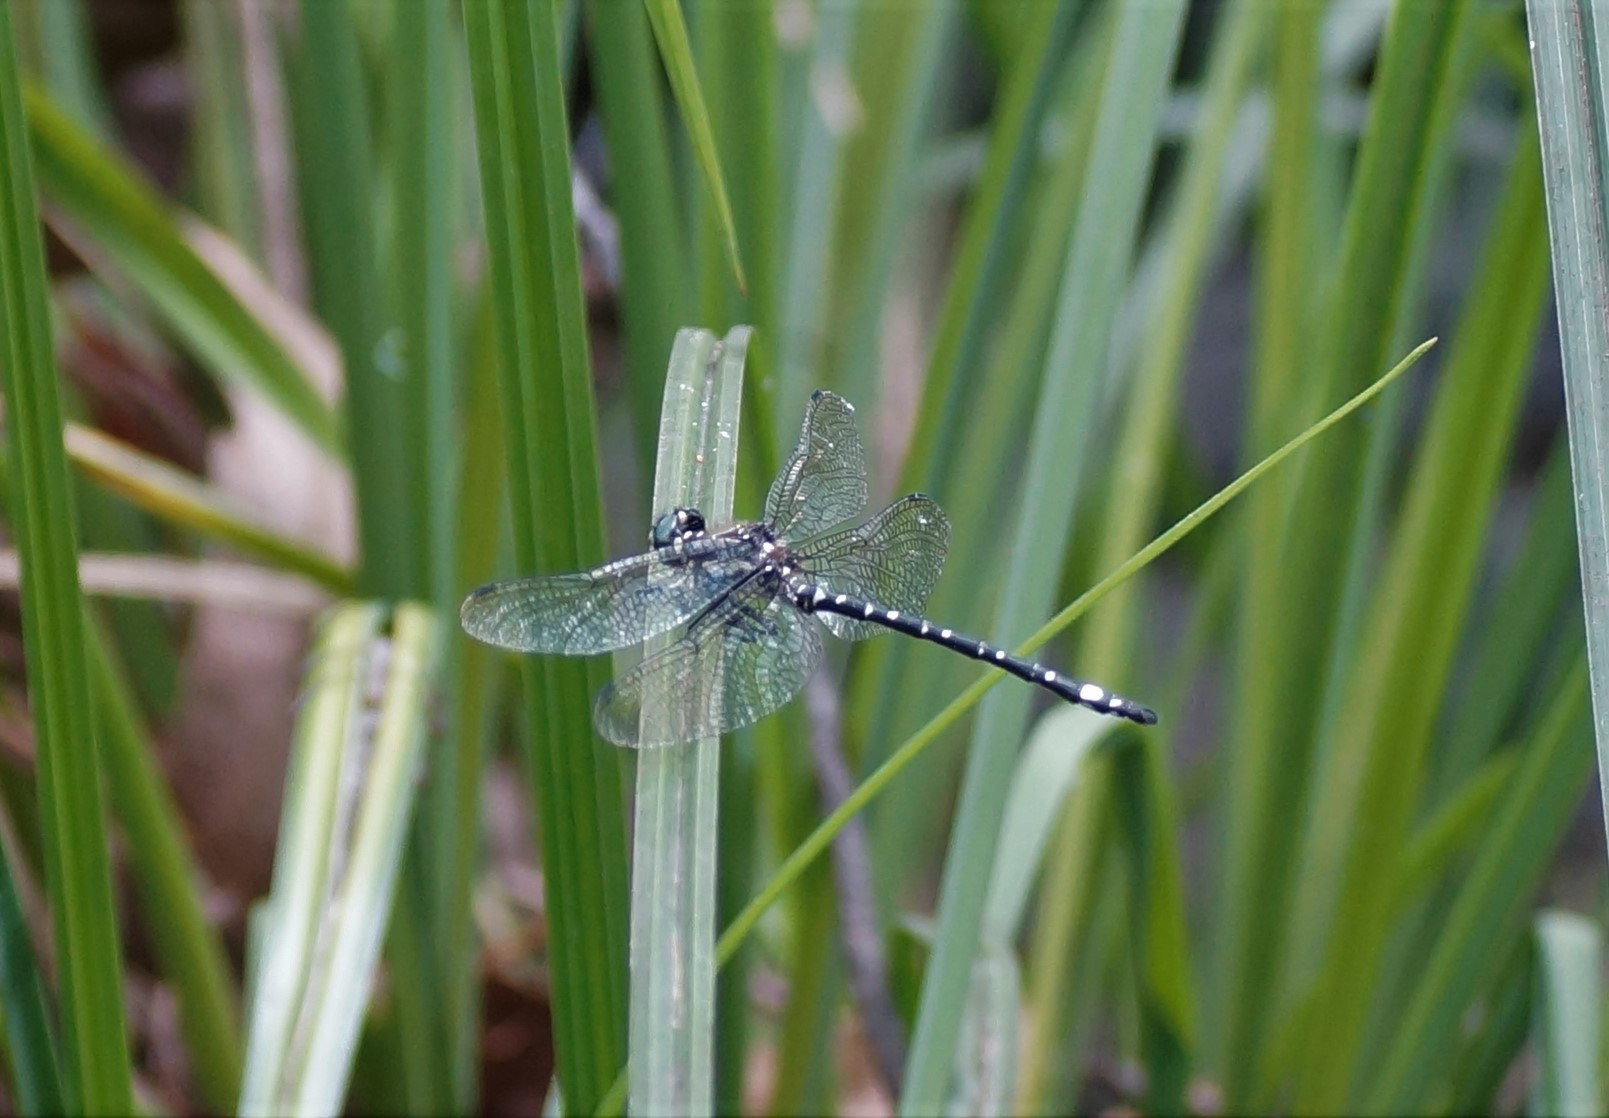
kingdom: Animalia
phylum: Arthropoda
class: Insecta
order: Odonata
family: Synthemistidae
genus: Eusynthemis
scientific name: Eusynthemis brevistyla
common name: Small tigertail
